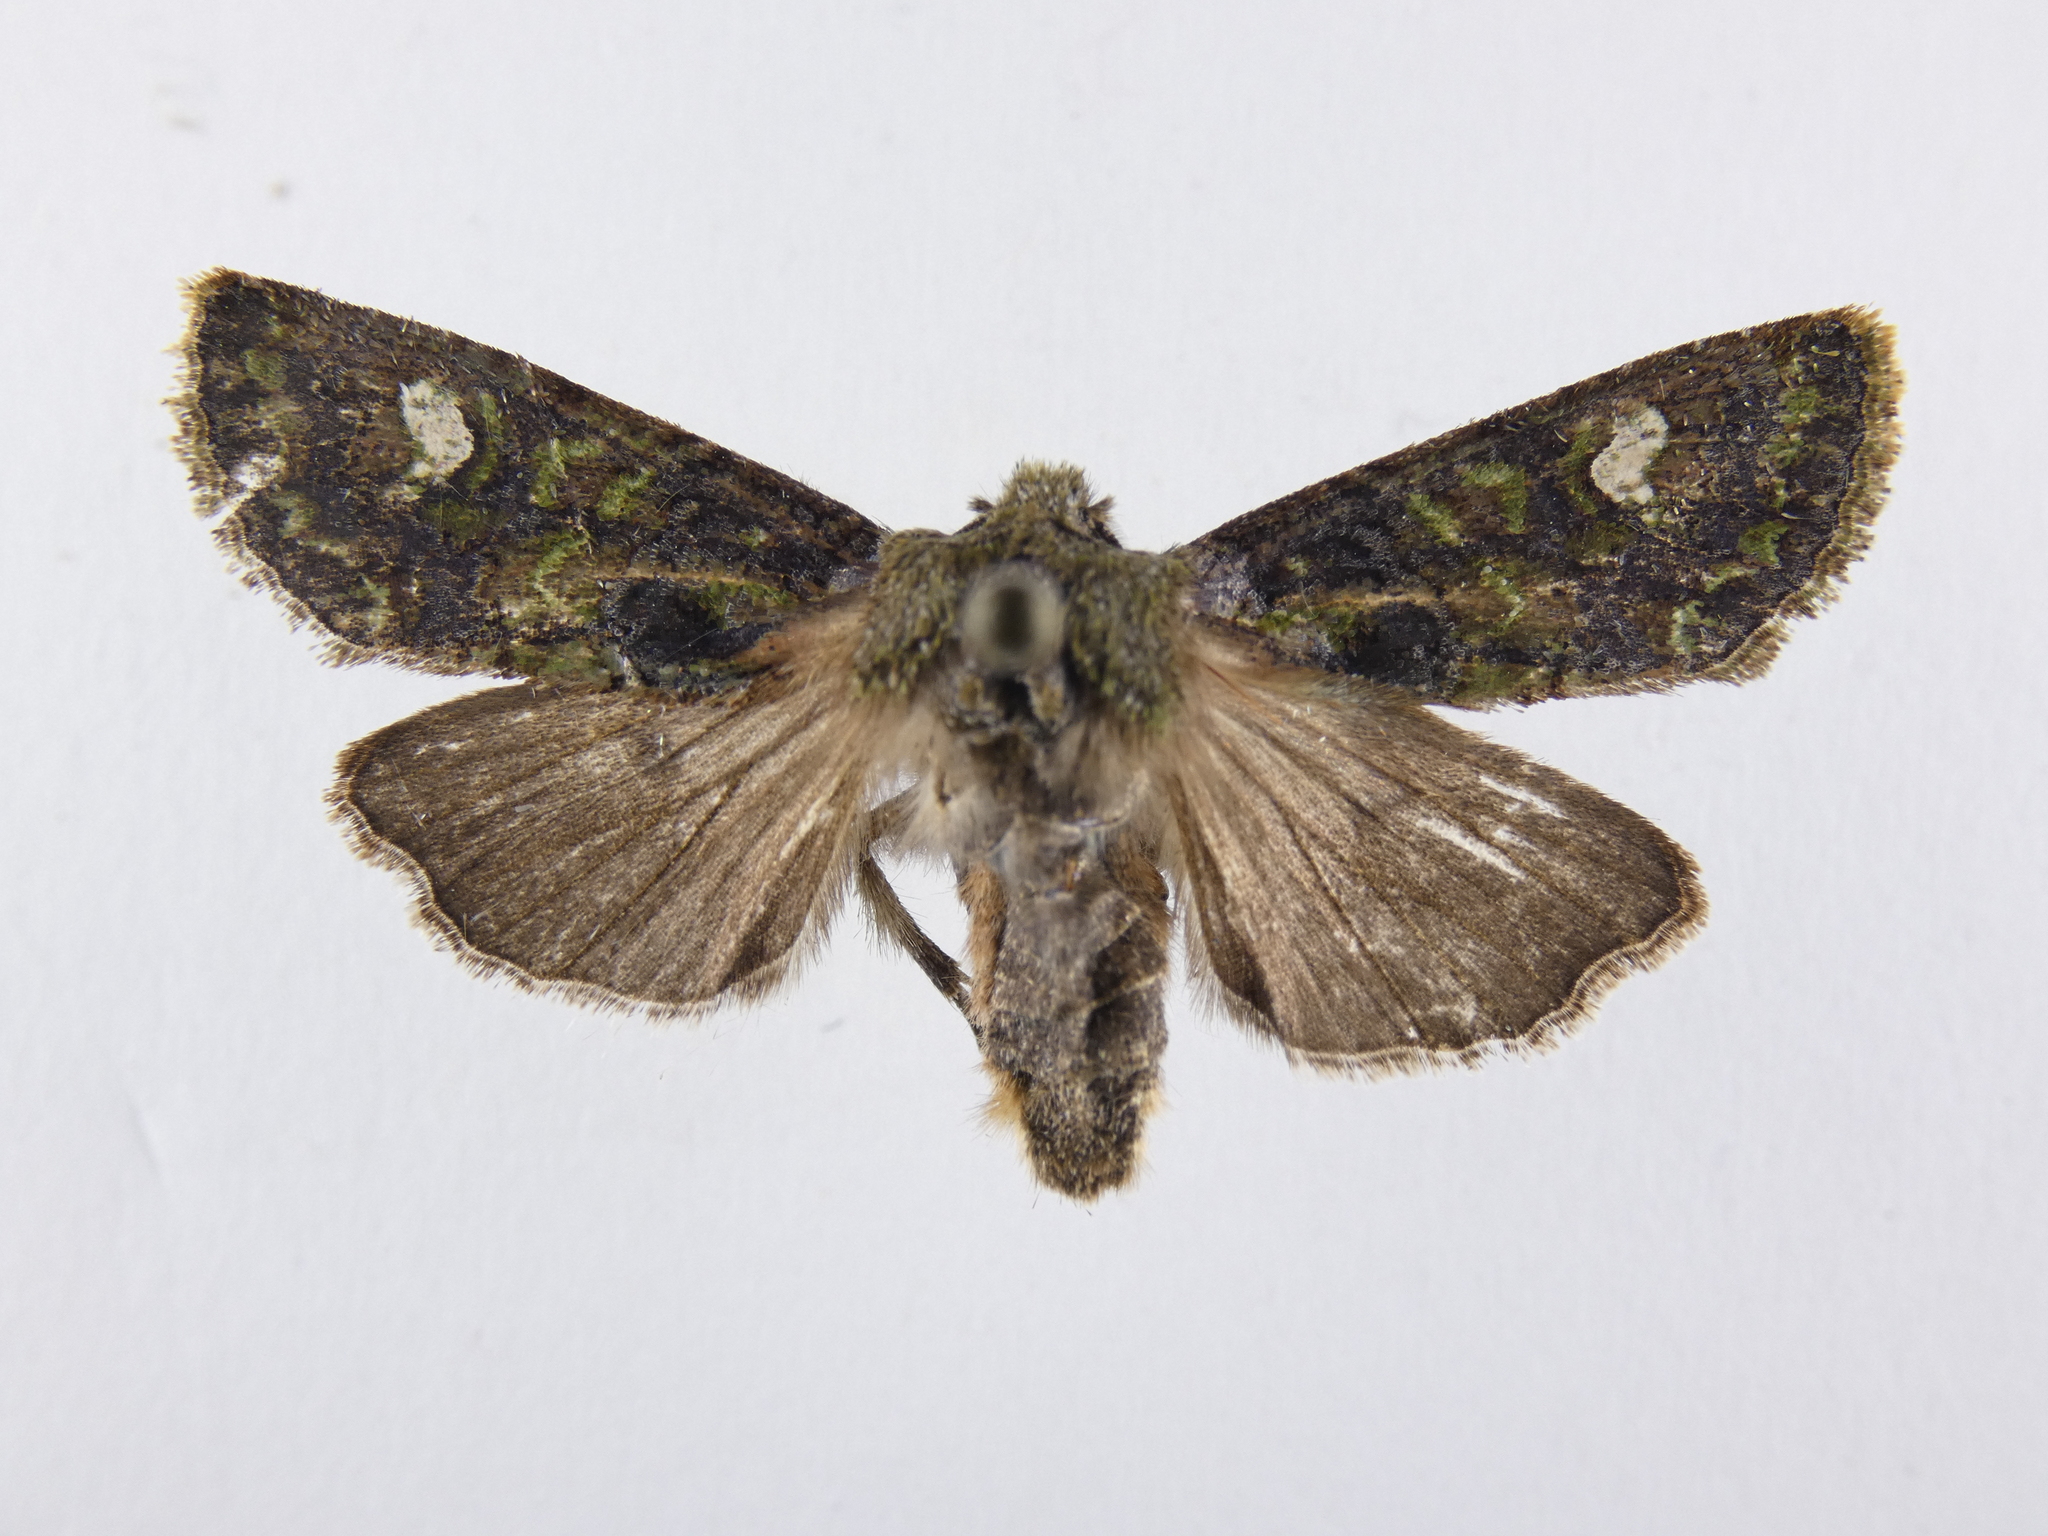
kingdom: Animalia
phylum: Arthropoda
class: Insecta
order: Lepidoptera
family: Noctuidae
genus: Ichneutica
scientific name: Ichneutica
